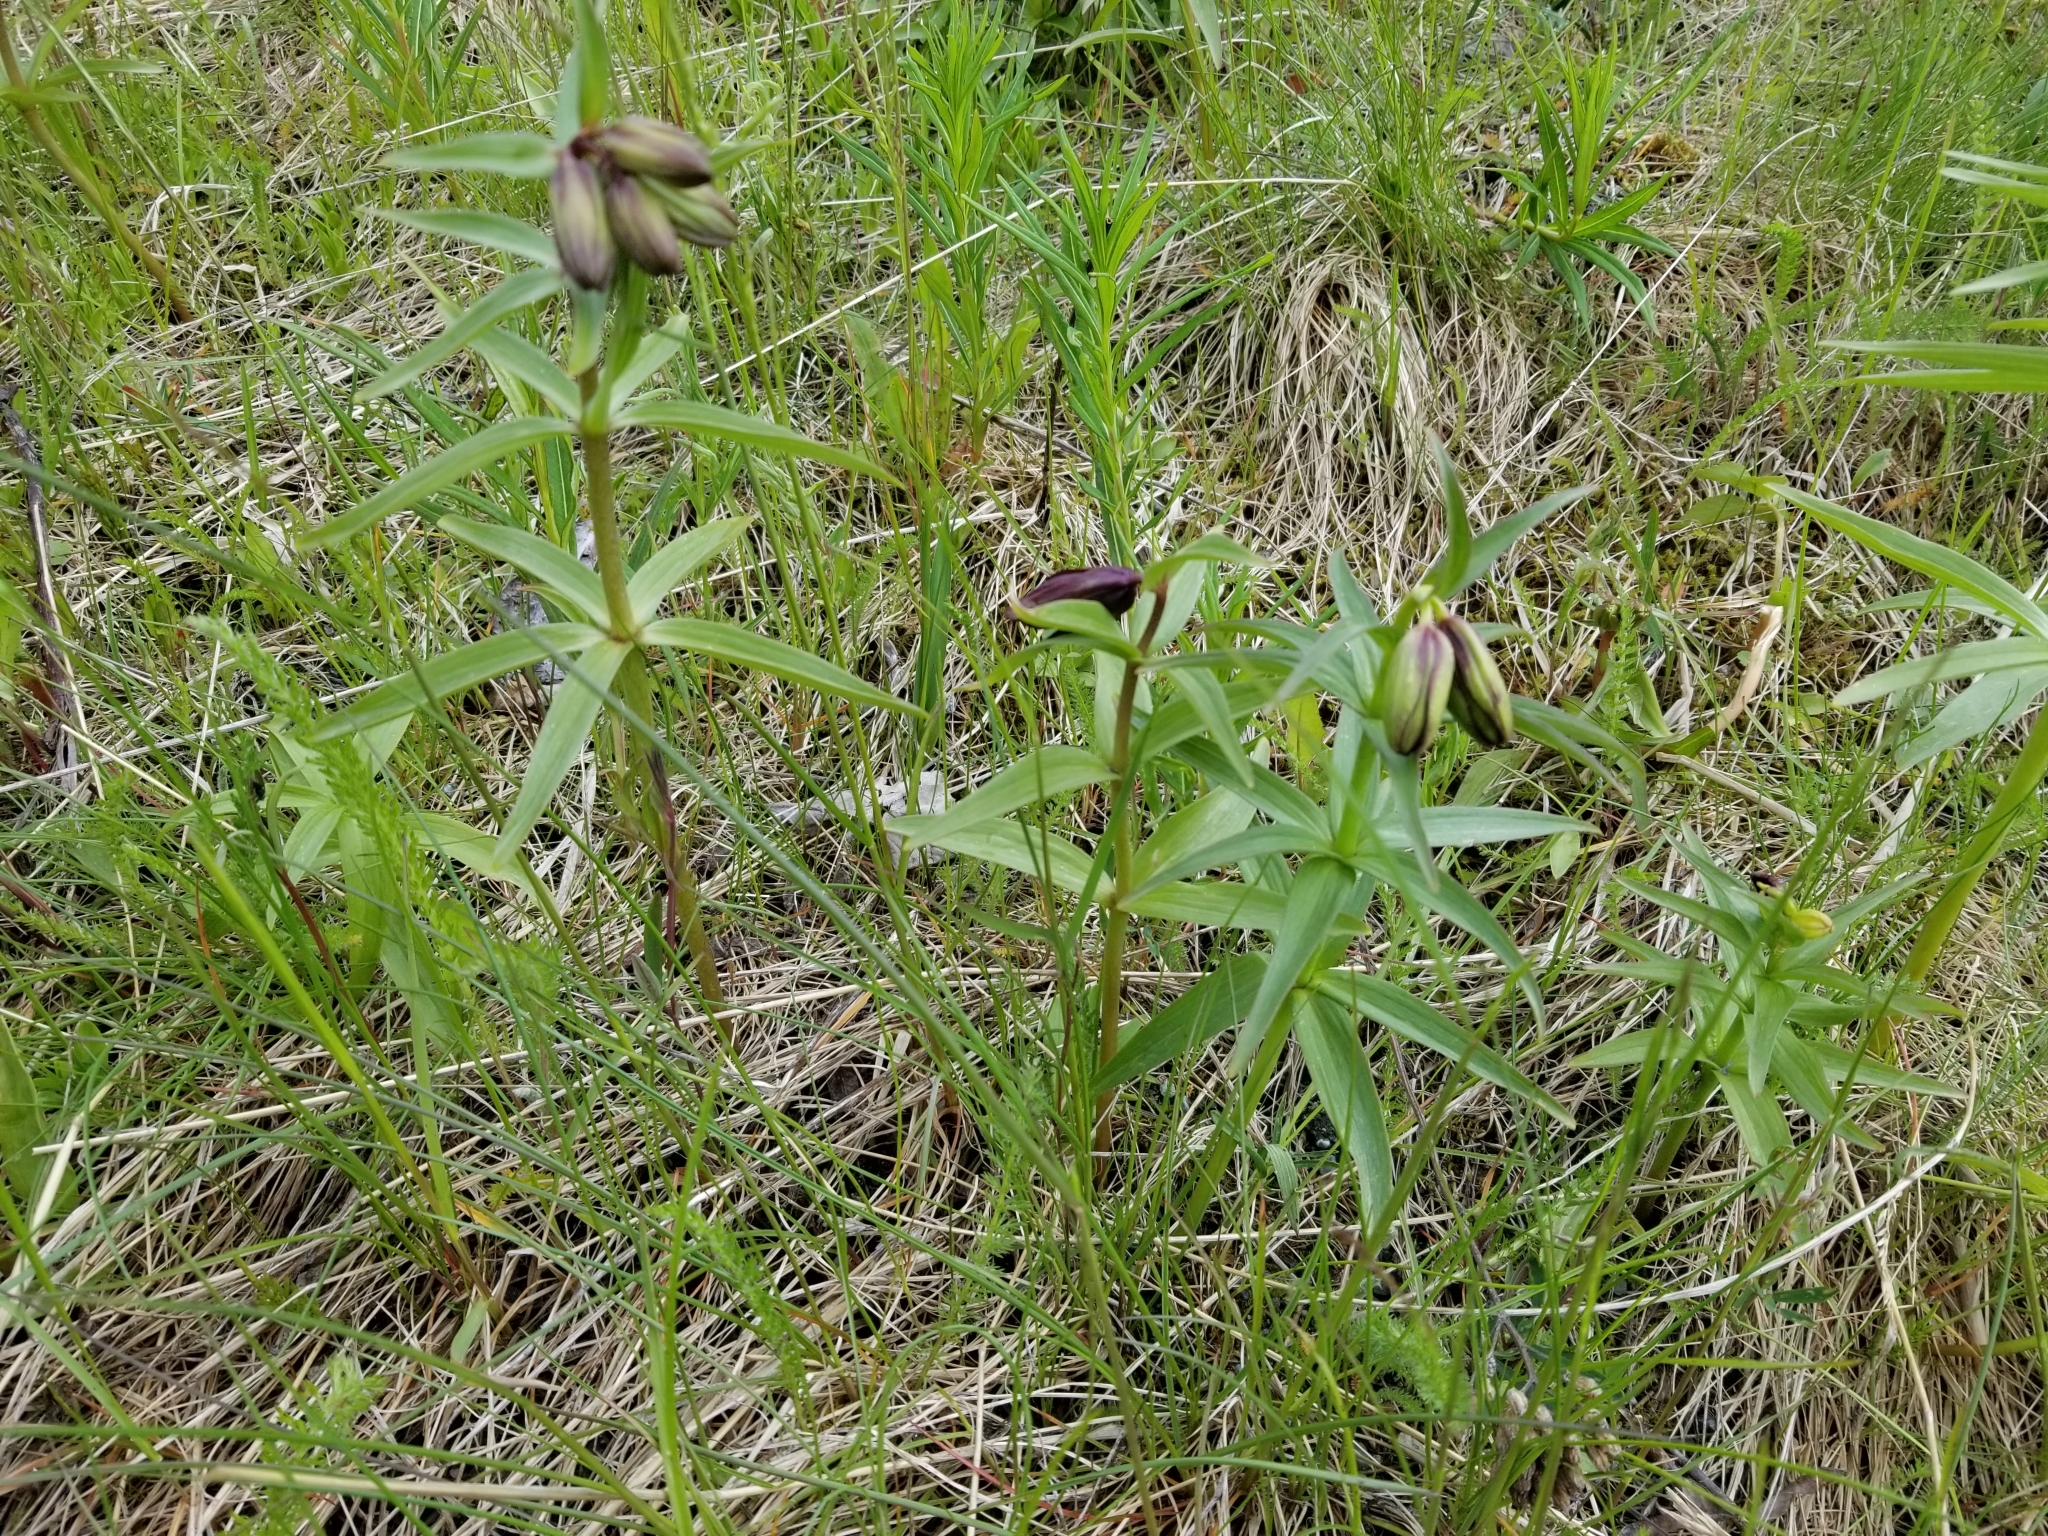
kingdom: Plantae
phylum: Tracheophyta
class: Liliopsida
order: Liliales
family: Liliaceae
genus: Fritillaria
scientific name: Fritillaria camschatcensis
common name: Kamchatka fritillary
